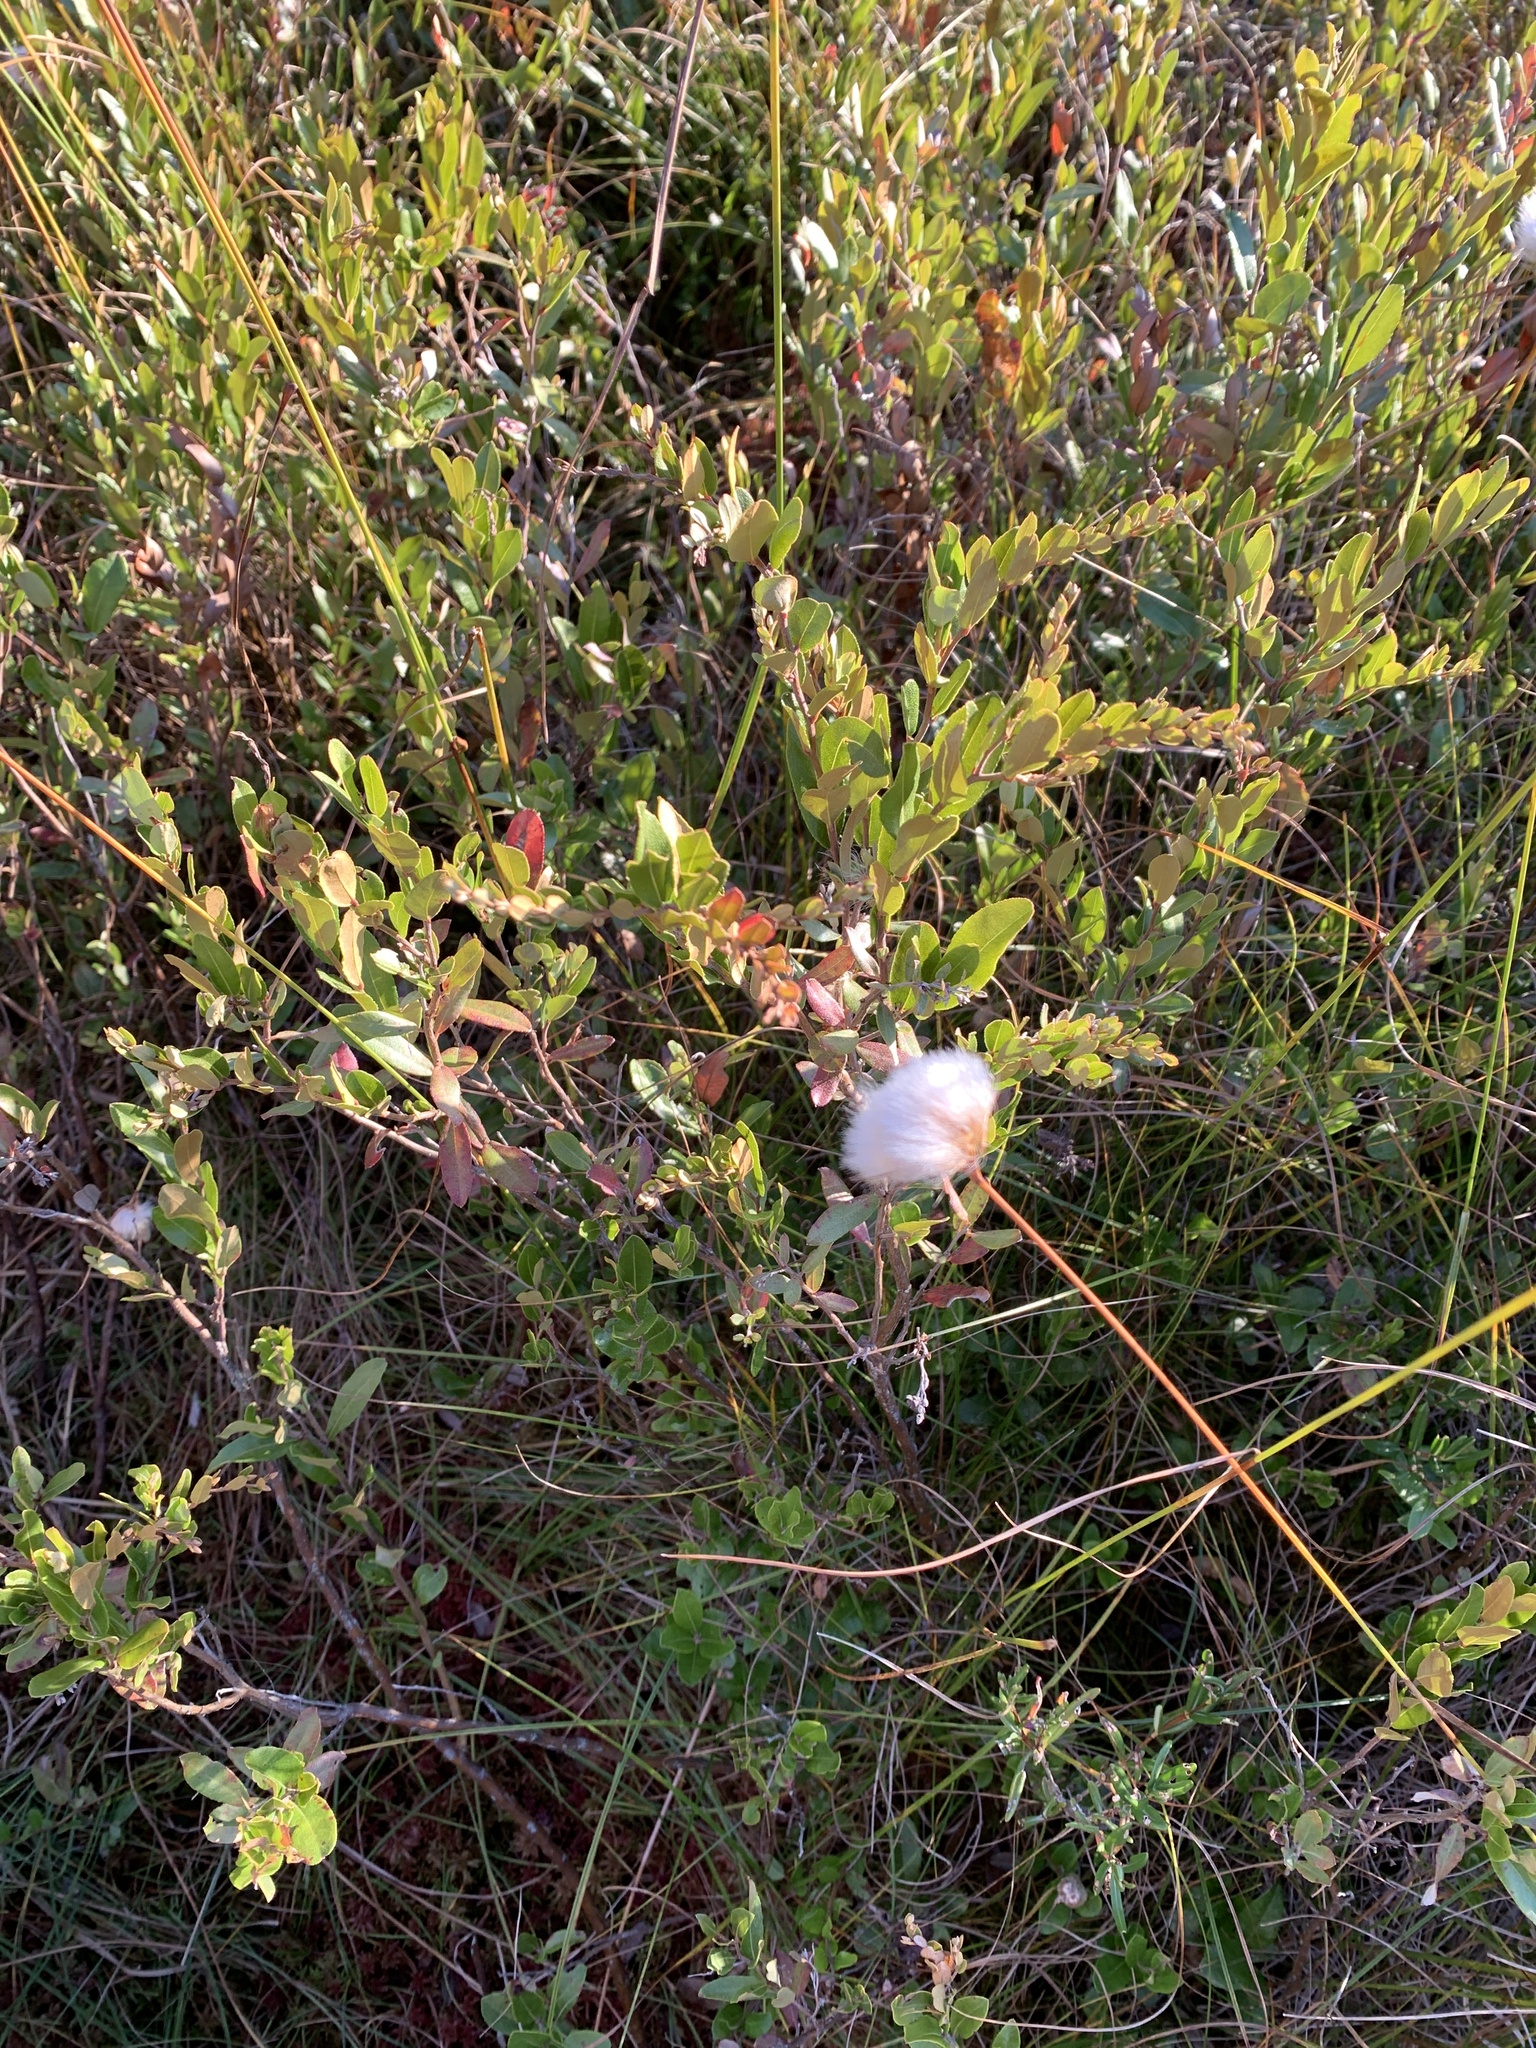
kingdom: Plantae
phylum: Tracheophyta
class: Magnoliopsida
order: Ericales
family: Ericaceae
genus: Chamaedaphne
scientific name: Chamaedaphne calyculata
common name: Leatherleaf
